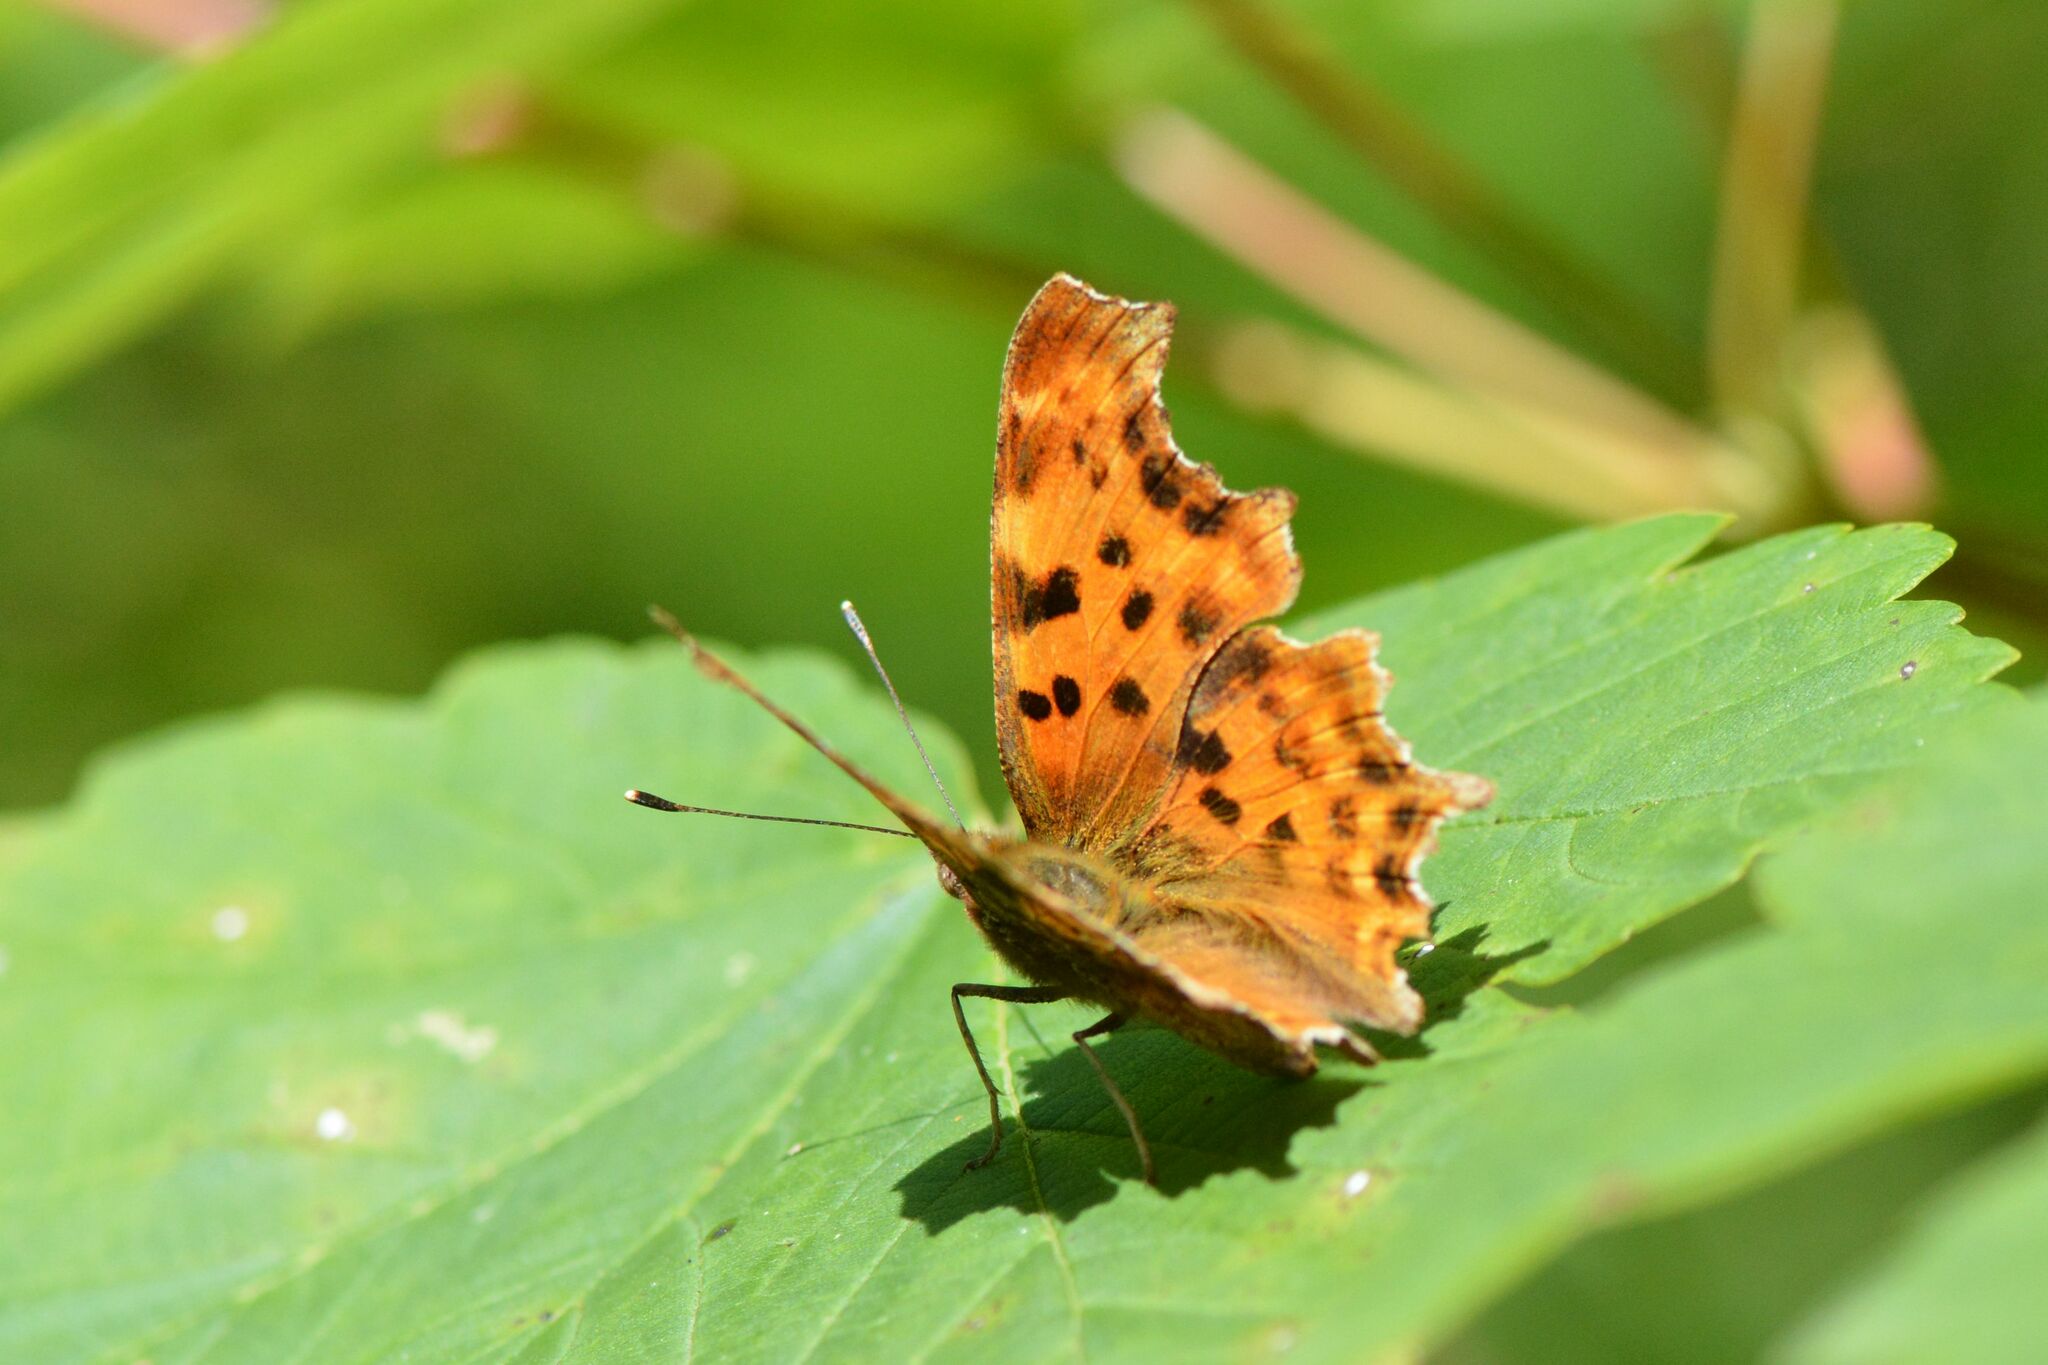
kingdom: Animalia
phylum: Arthropoda
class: Insecta
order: Lepidoptera
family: Nymphalidae
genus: Polygonia
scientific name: Polygonia c-album
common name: Comma
